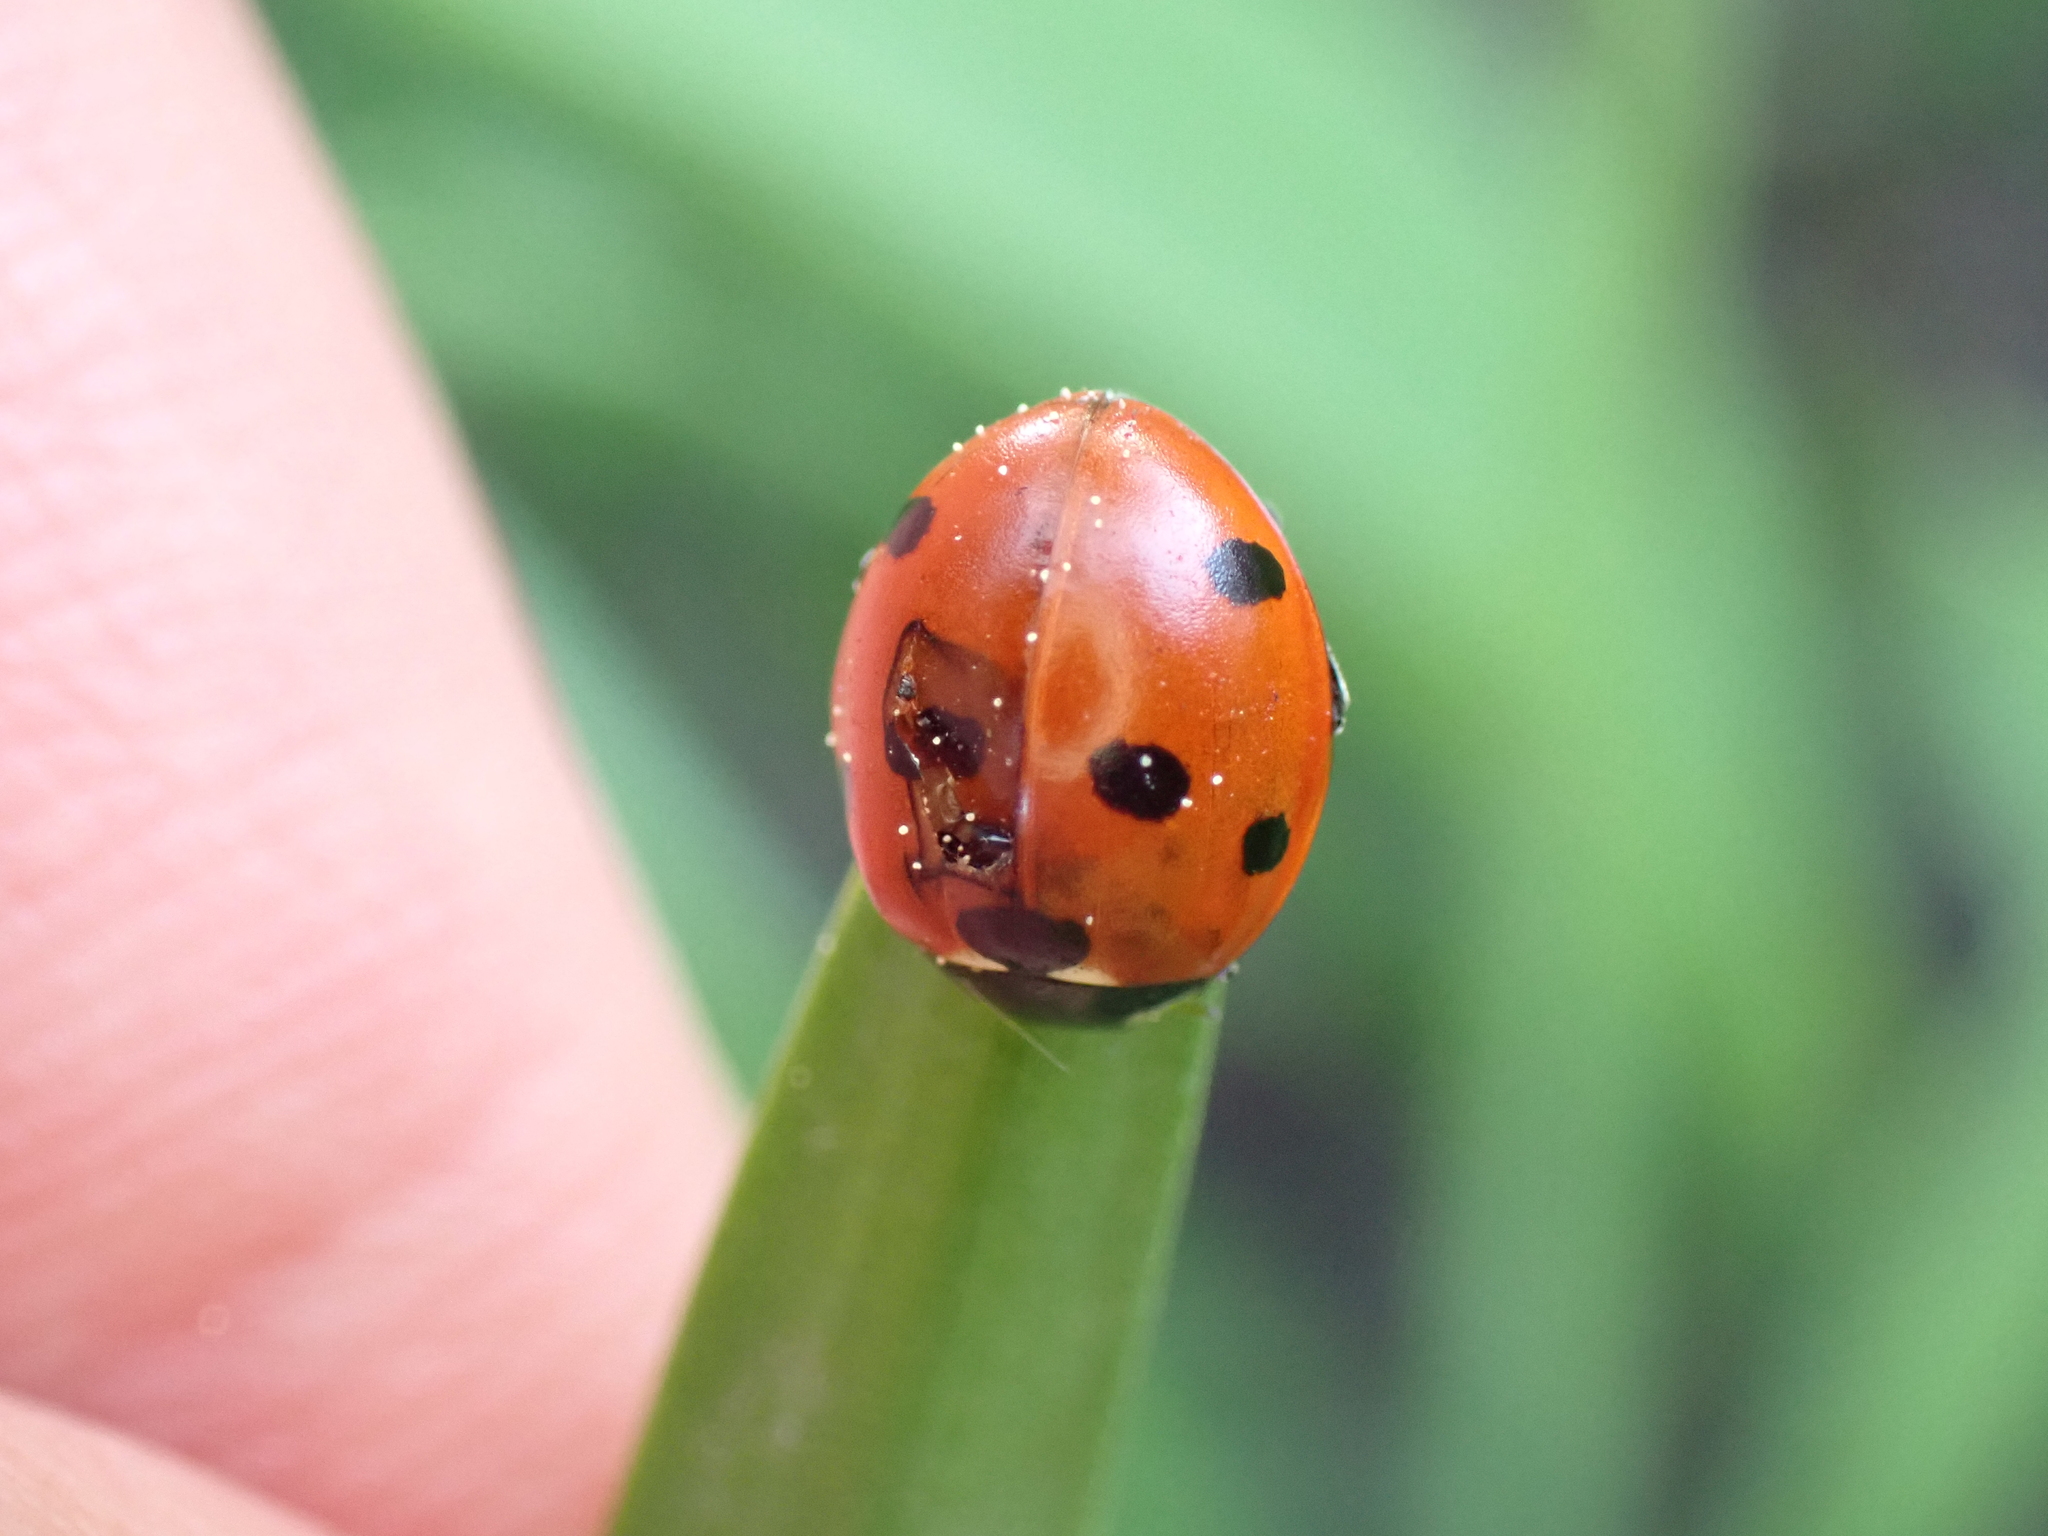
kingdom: Animalia
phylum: Arthropoda
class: Insecta
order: Coleoptera
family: Coccinellidae
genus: Coccinella
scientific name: Coccinella septempunctata
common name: Sevenspotted lady beetle
